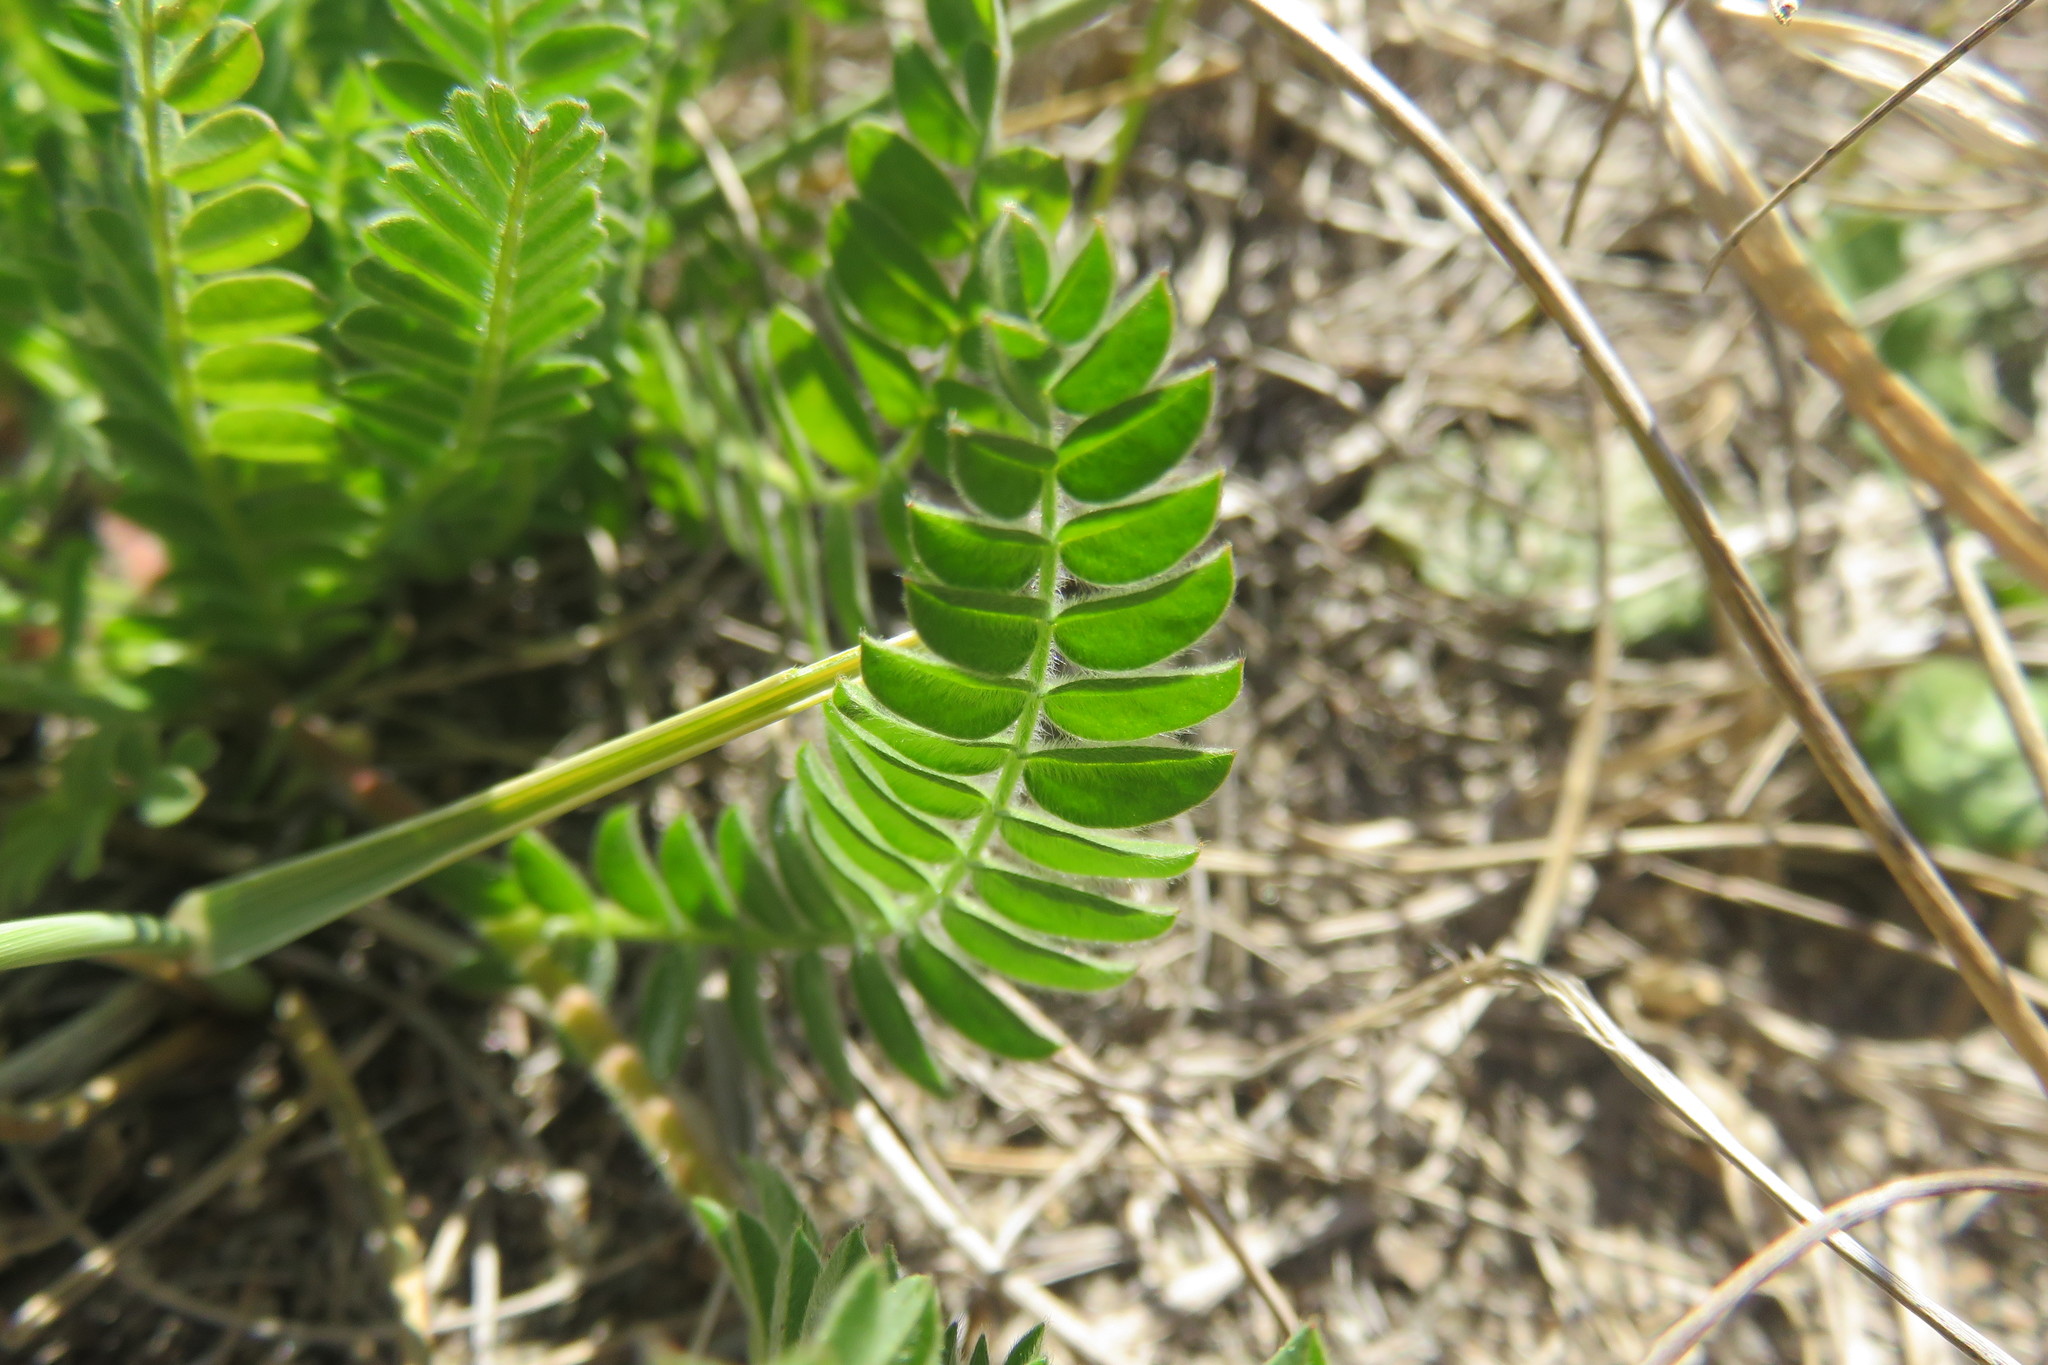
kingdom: Plantae
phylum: Tracheophyta
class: Magnoliopsida
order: Fabales
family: Fabaceae
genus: Ornithopus
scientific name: Ornithopus compressus
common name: Yellow serradella
